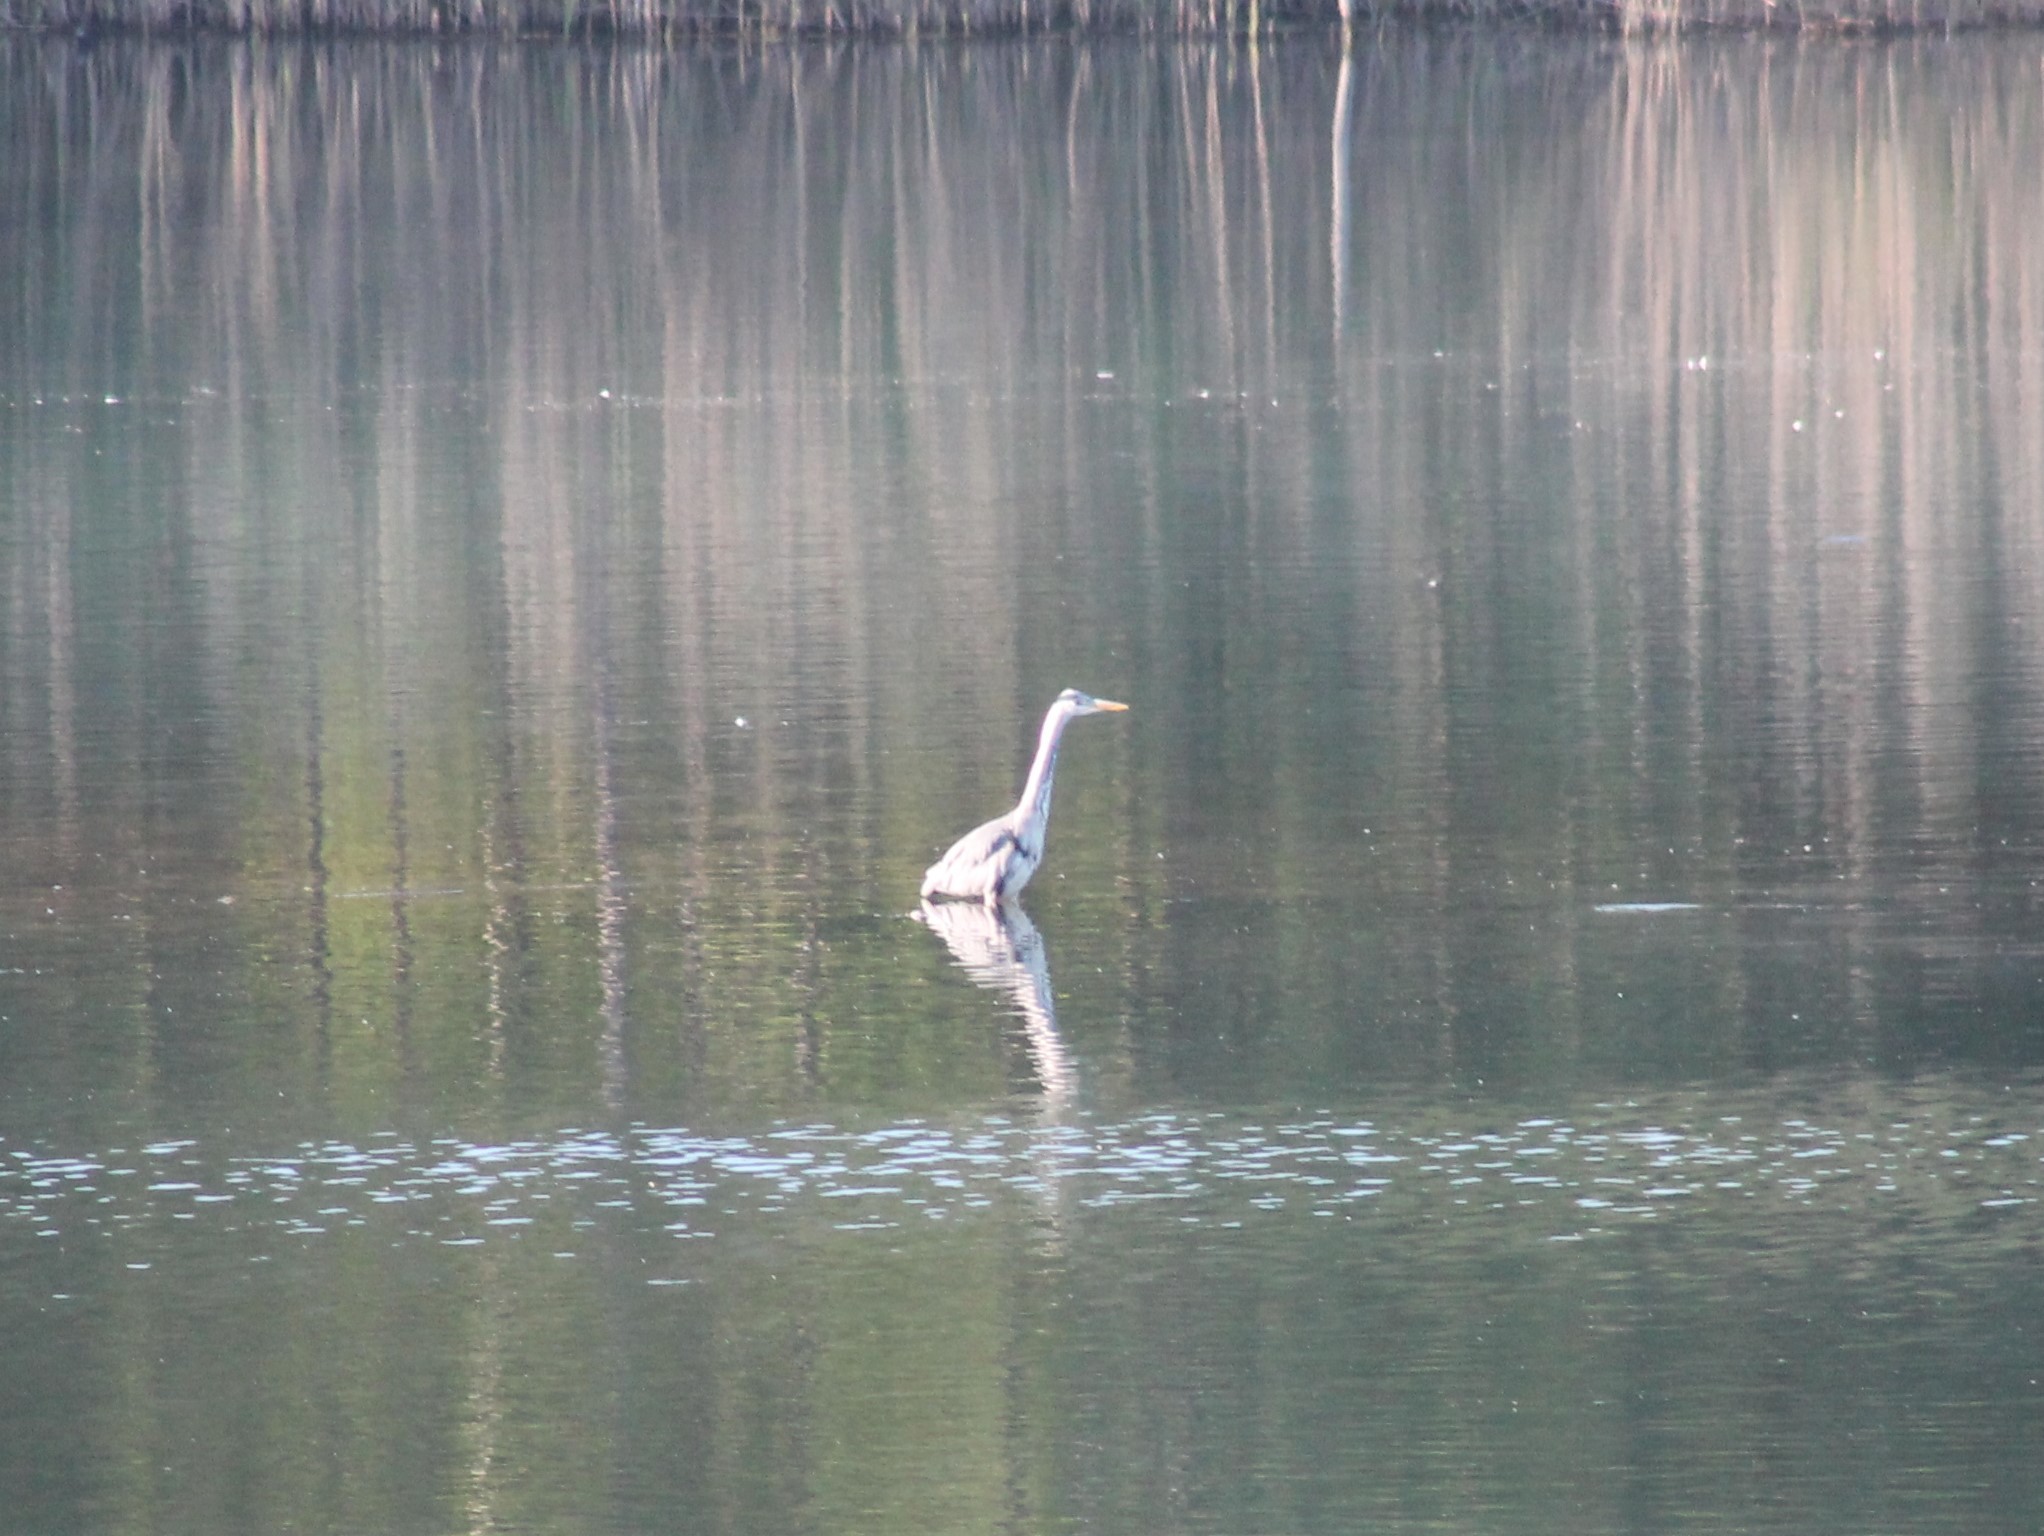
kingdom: Animalia
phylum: Chordata
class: Aves
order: Pelecaniformes
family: Ardeidae
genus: Ardea
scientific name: Ardea cinerea
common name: Grey heron
